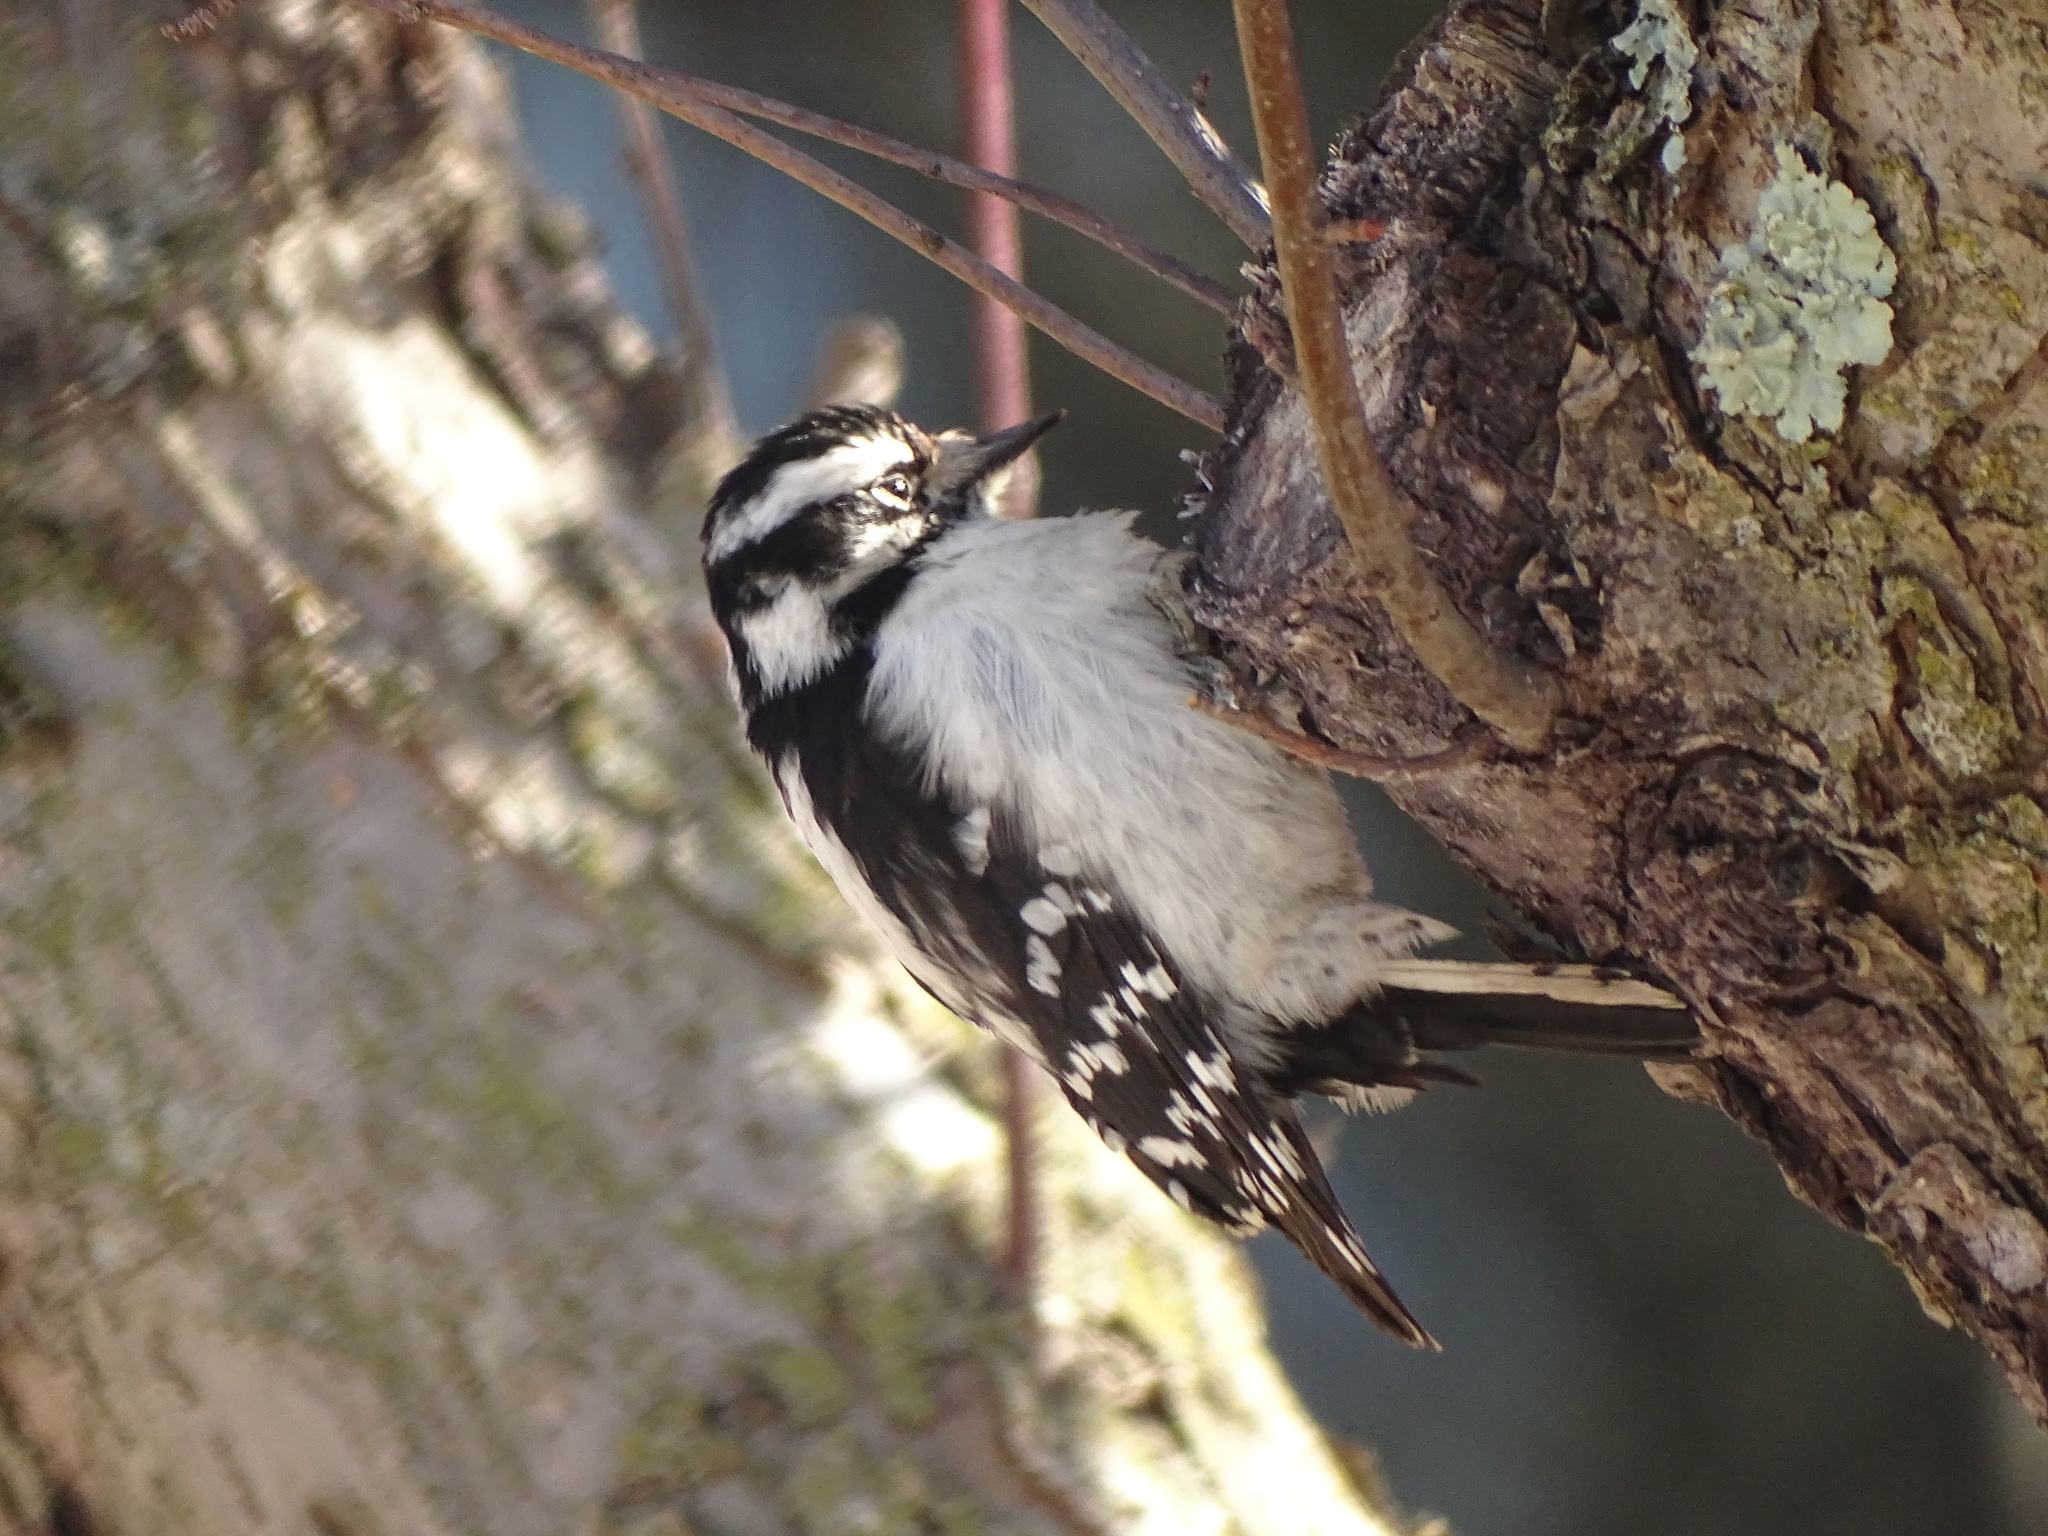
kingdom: Animalia
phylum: Chordata
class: Aves
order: Piciformes
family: Picidae
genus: Dryobates
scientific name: Dryobates pubescens
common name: Downy woodpecker
